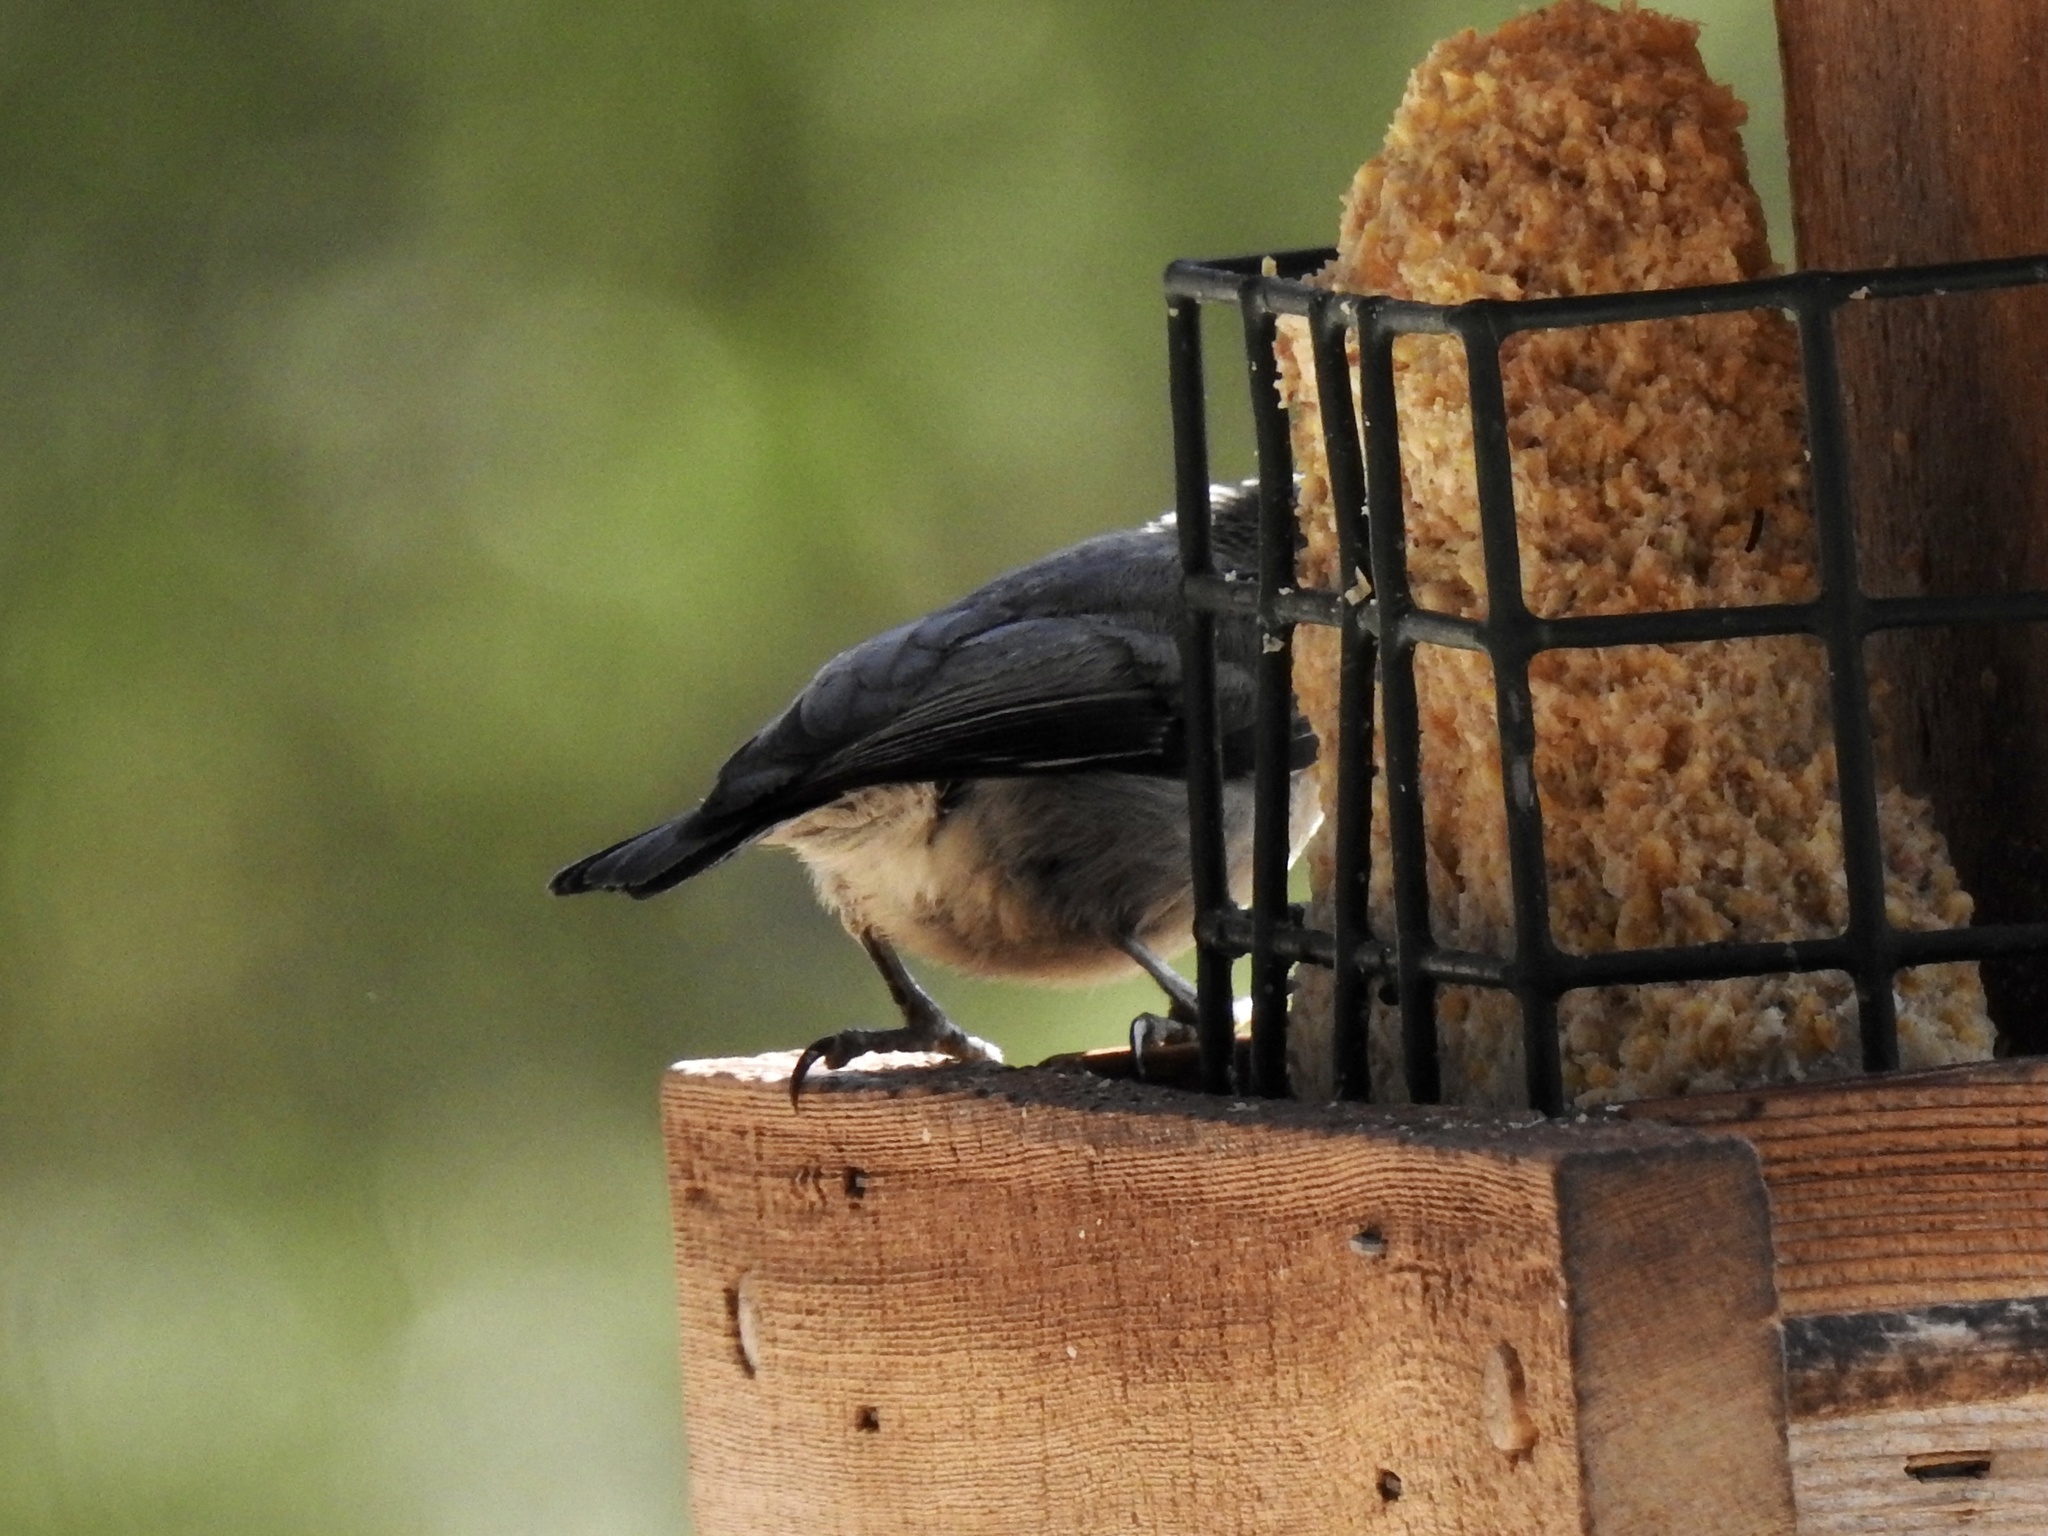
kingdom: Animalia
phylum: Chordata
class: Aves
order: Passeriformes
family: Sittidae
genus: Sitta
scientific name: Sitta pygmaea
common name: Pygmy nuthatch
